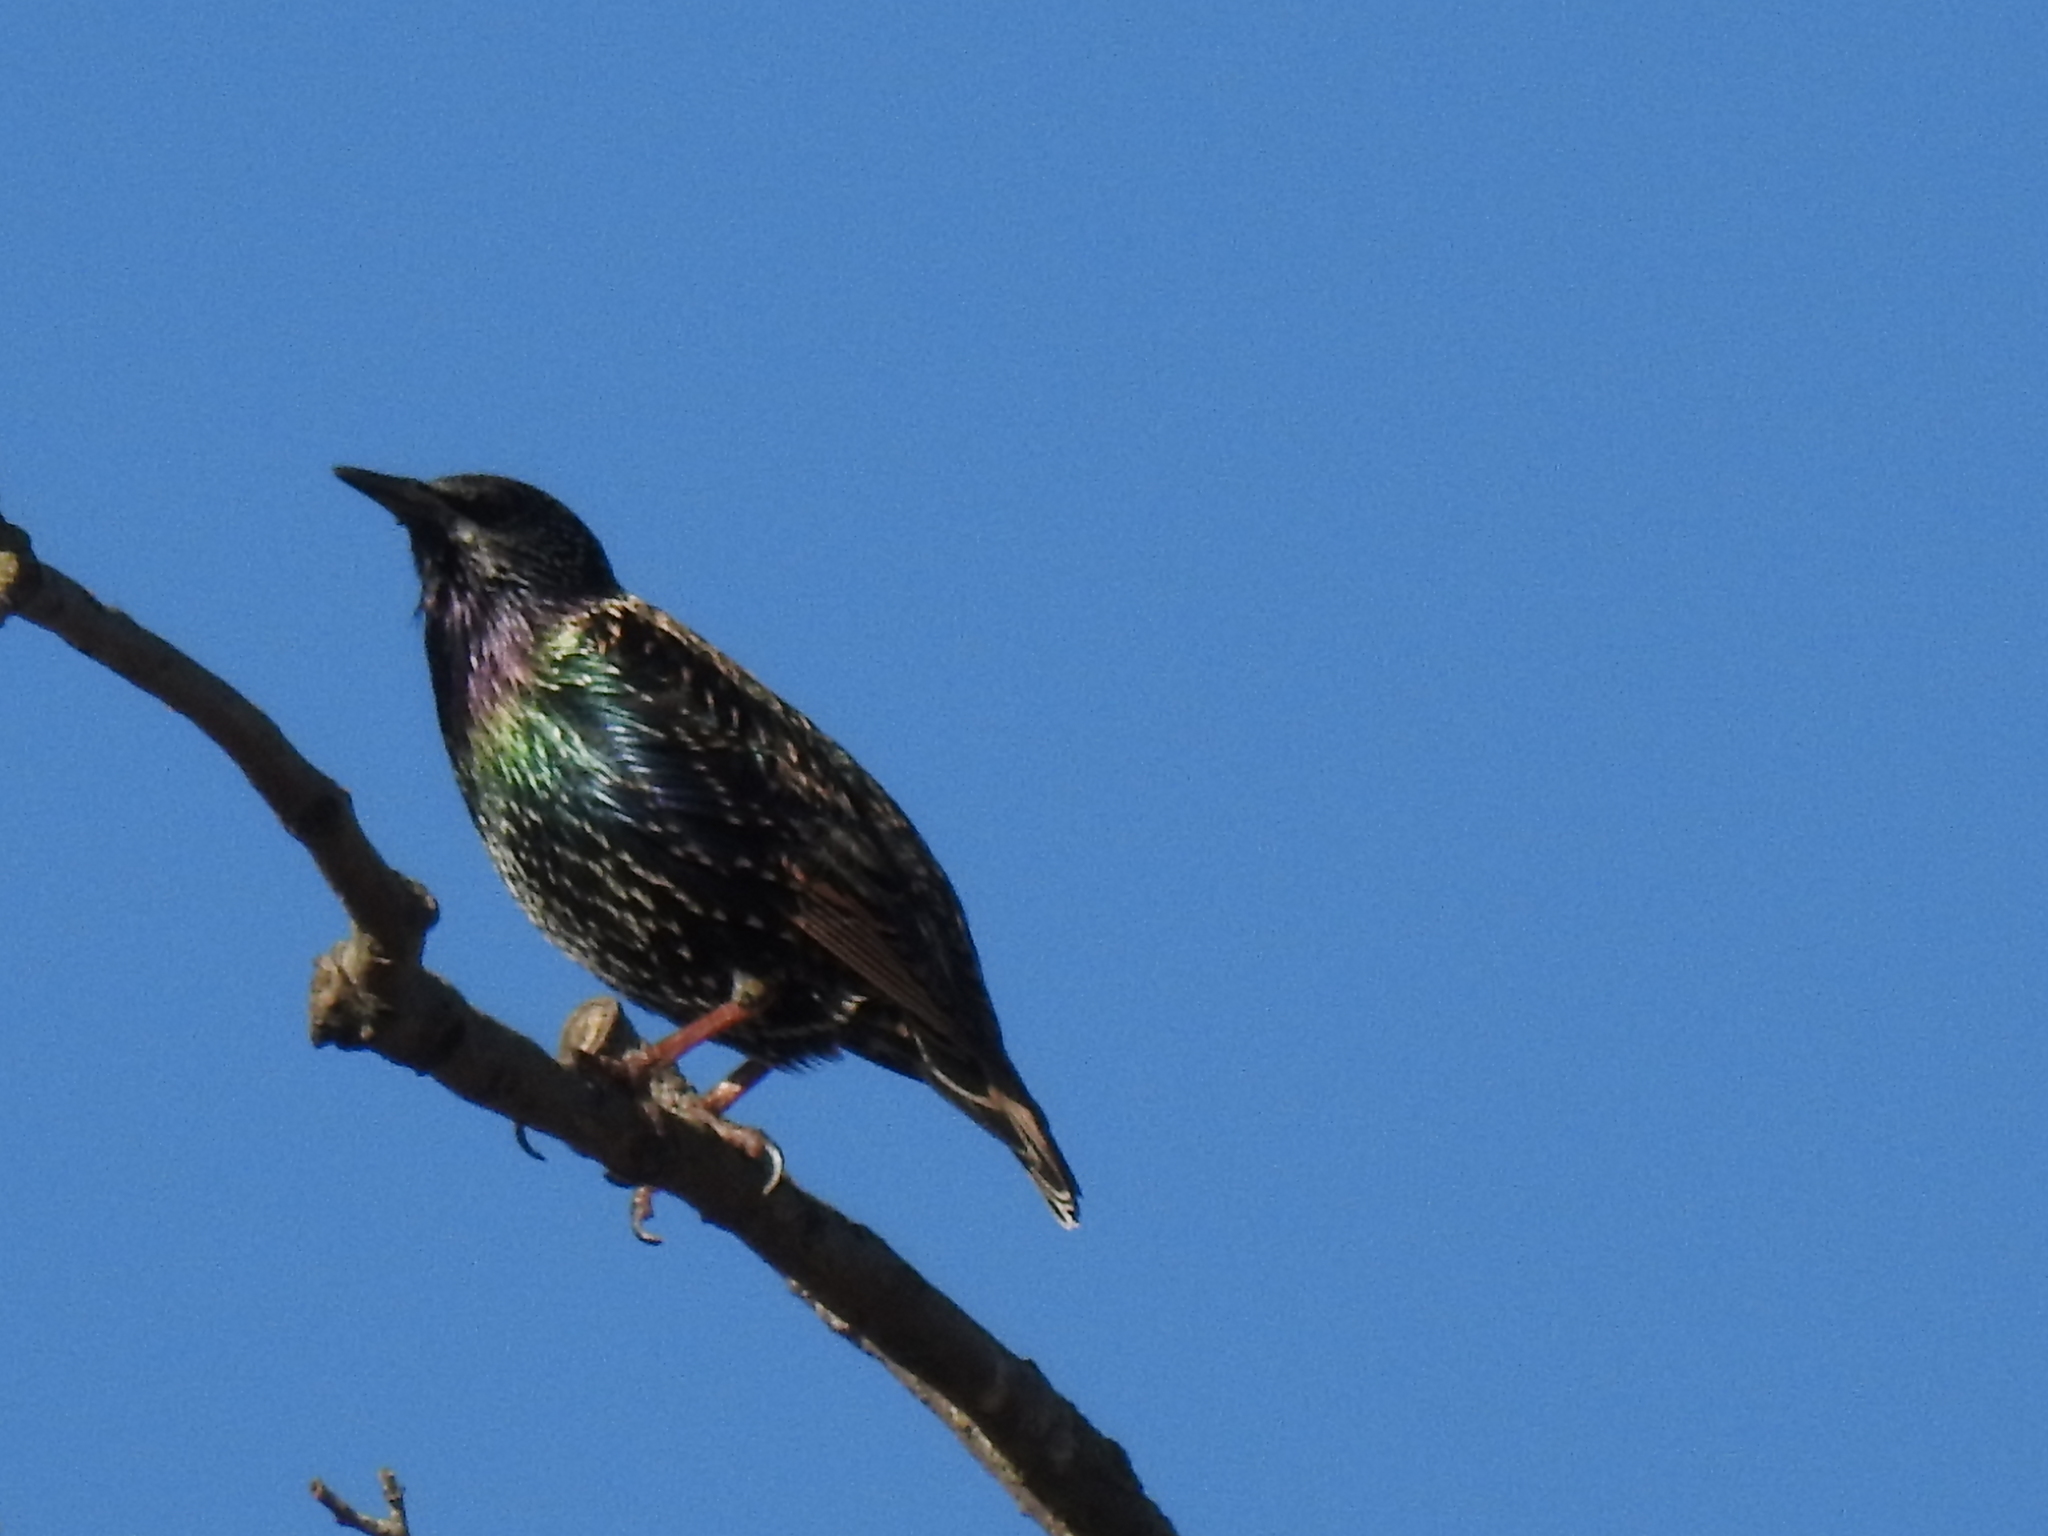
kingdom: Animalia
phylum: Chordata
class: Aves
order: Passeriformes
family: Sturnidae
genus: Sturnus
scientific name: Sturnus vulgaris
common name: Common starling
